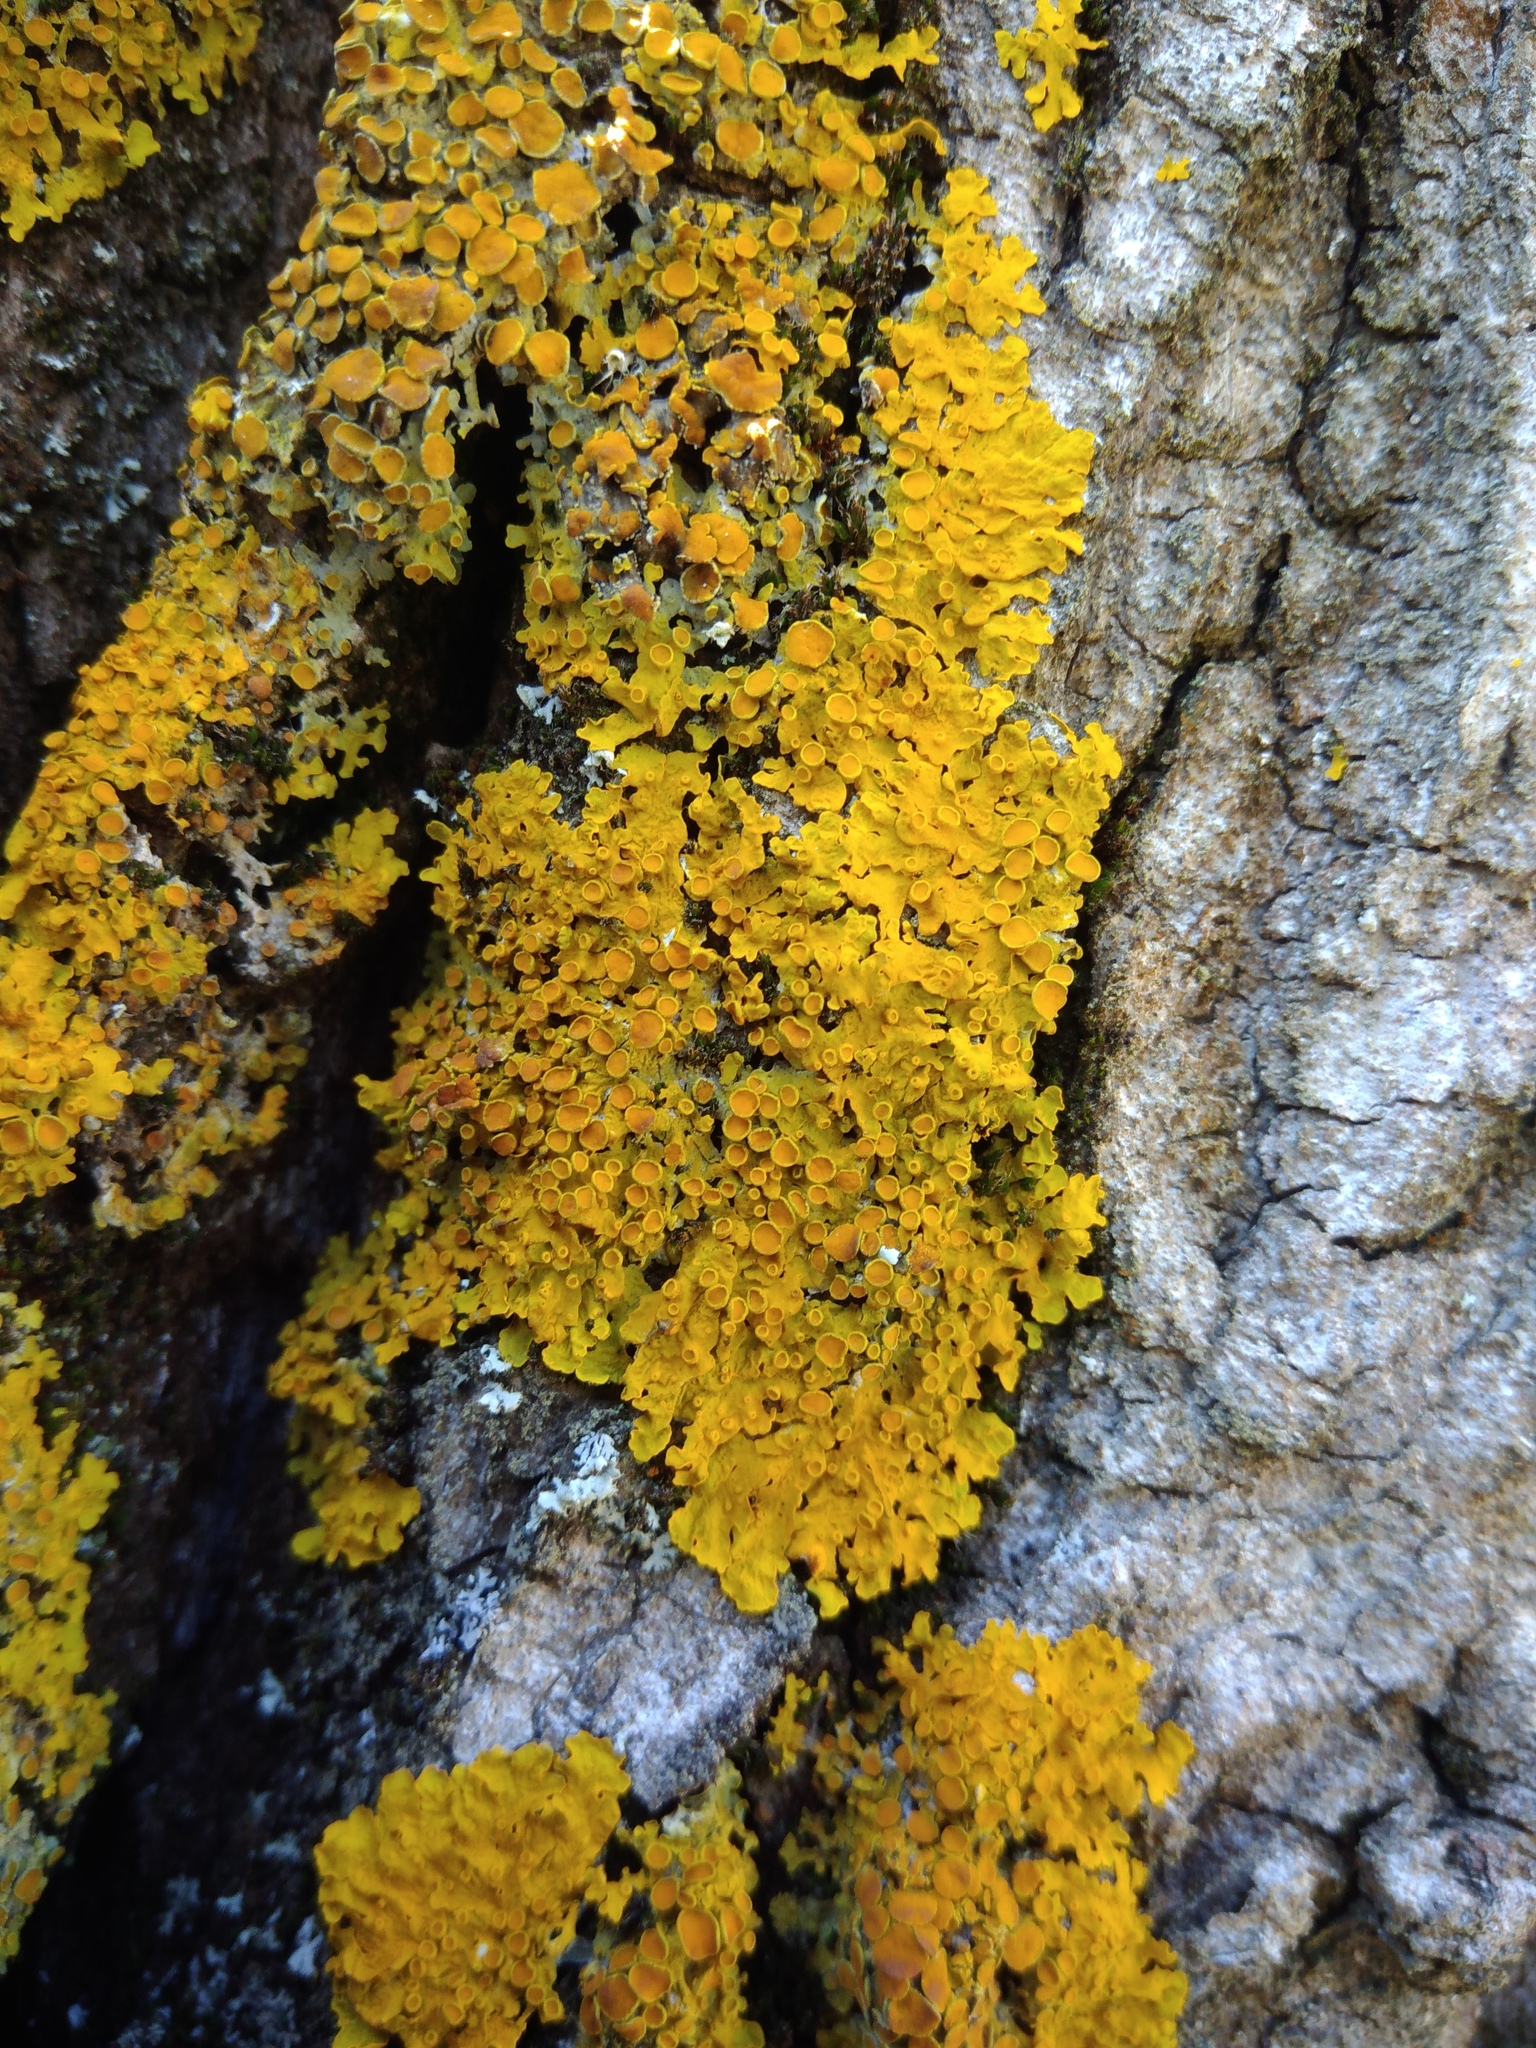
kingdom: Fungi
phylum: Ascomycota
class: Lecanoromycetes
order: Teloschistales
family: Teloschistaceae
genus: Xanthoria
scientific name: Xanthoria parietina
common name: Common orange lichen
